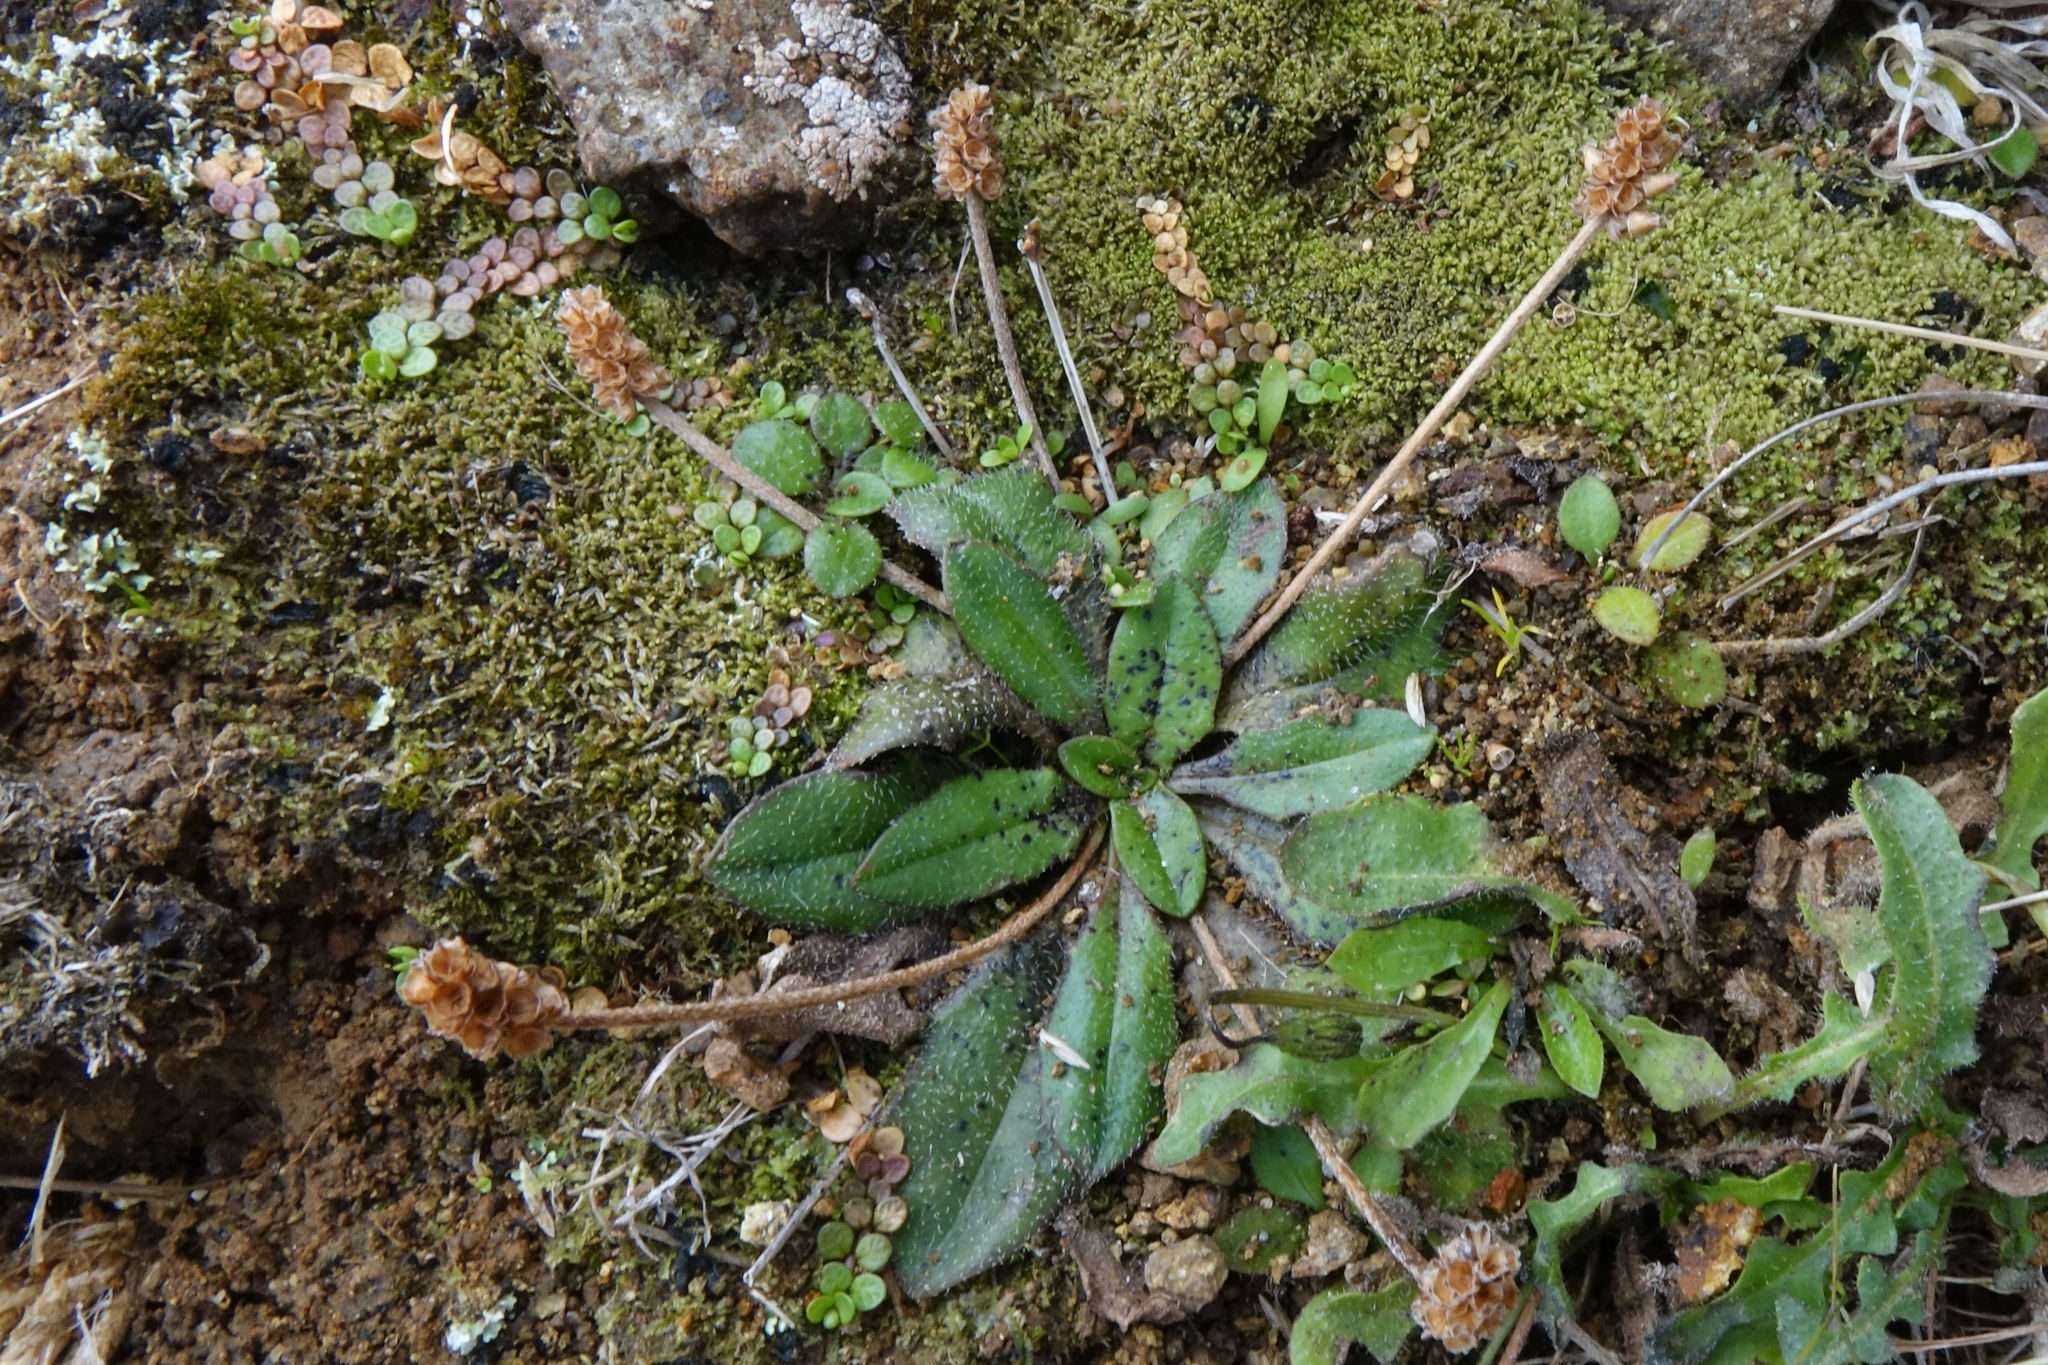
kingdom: Plantae
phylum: Tracheophyta
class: Magnoliopsida
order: Lamiales
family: Plantaginaceae
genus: Plantago
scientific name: Plantago raoulii
